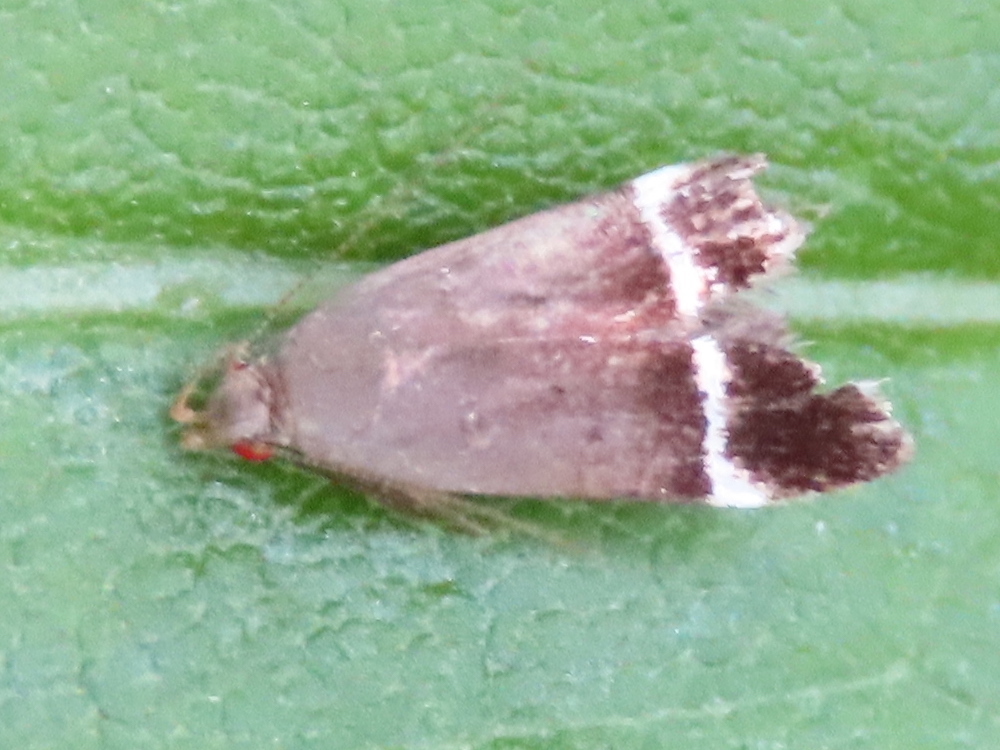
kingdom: Animalia
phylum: Arthropoda
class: Insecta
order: Lepidoptera
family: Gelechiidae
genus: Anacampsis
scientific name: Anacampsis agrimoniella
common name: Agrimony anacampsis moth
